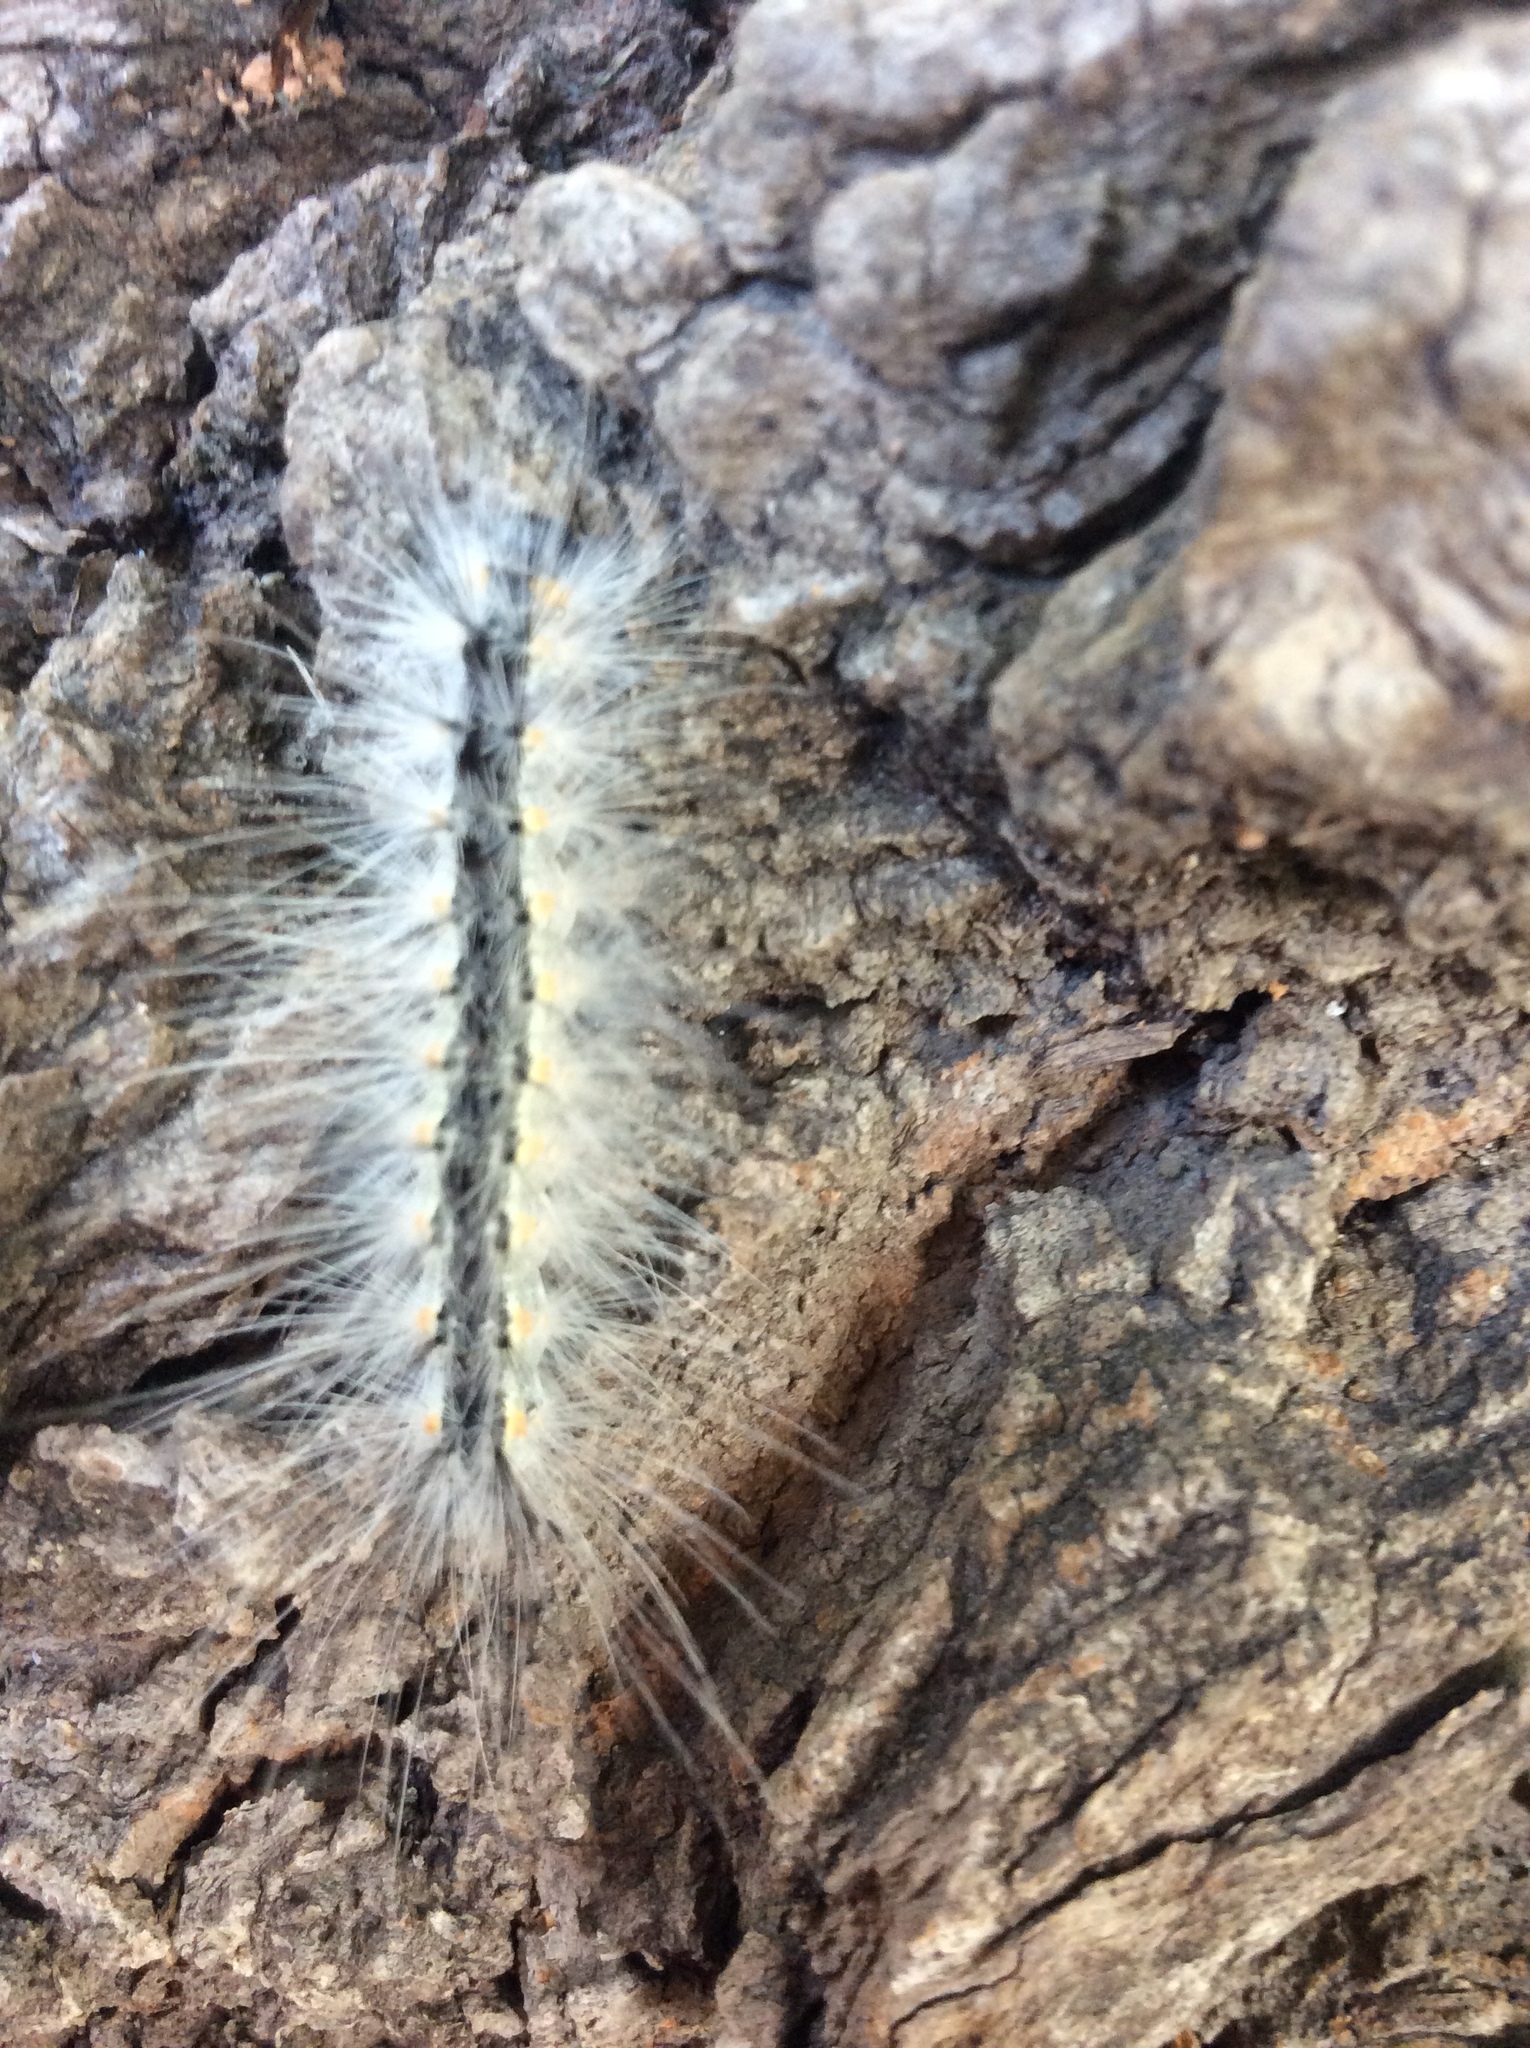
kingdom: Animalia
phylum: Arthropoda
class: Insecta
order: Lepidoptera
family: Erebidae
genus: Hyphantria
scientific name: Hyphantria cunea
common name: American white moth
